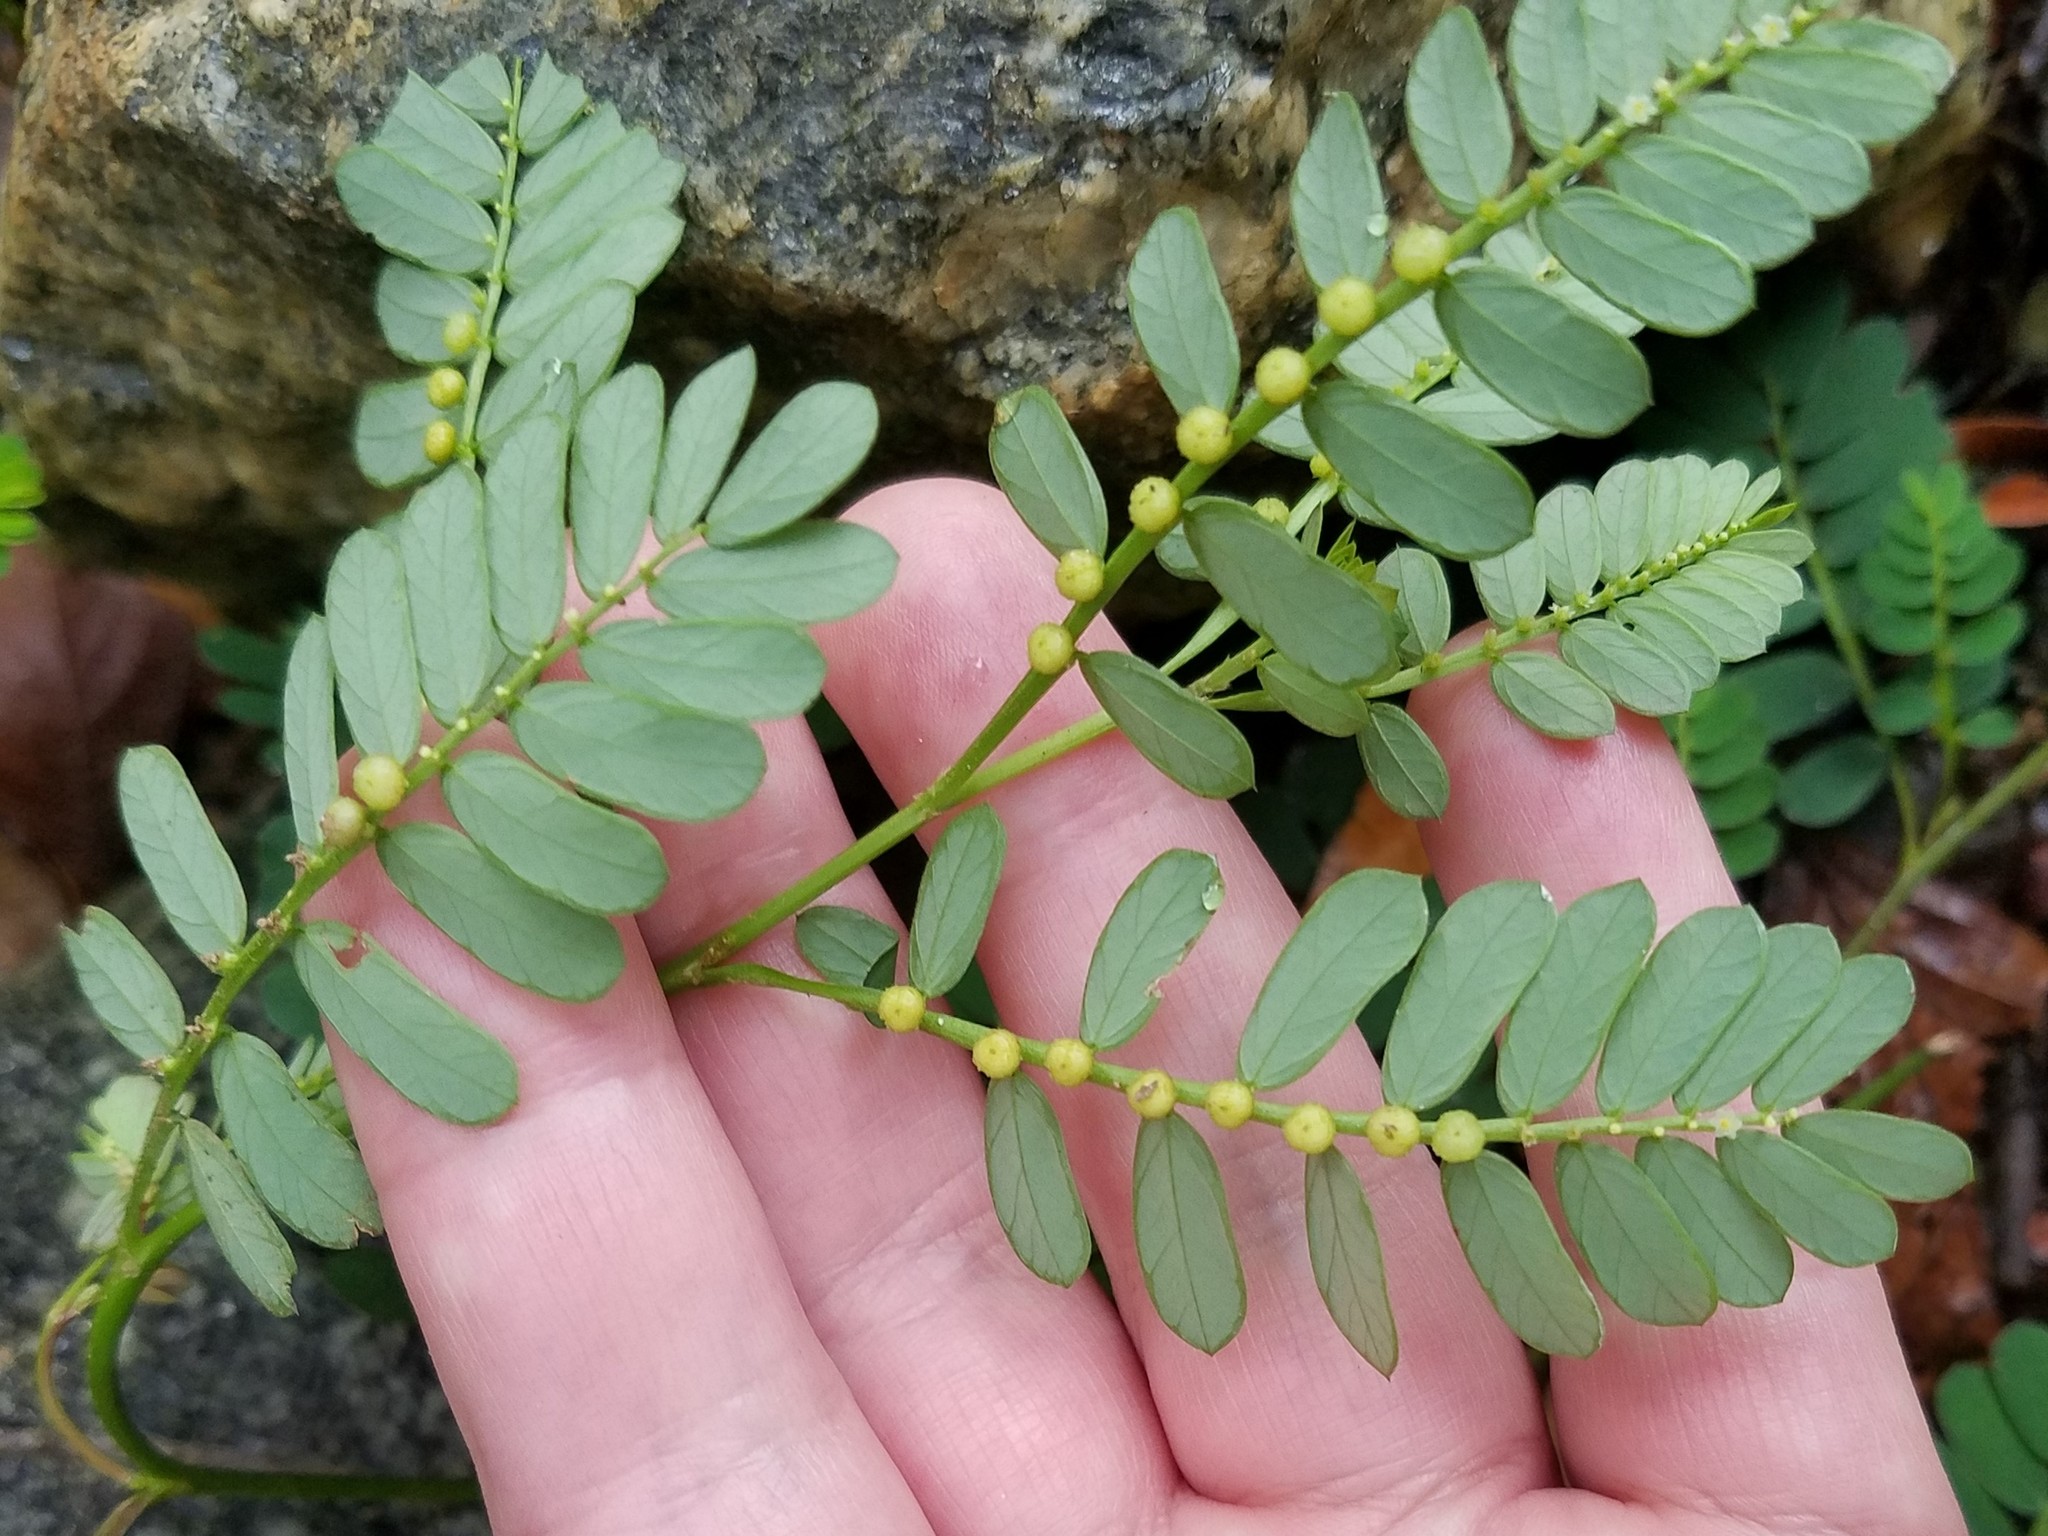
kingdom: Plantae
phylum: Tracheophyta
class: Magnoliopsida
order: Malpighiales
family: Phyllanthaceae
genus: Phyllanthus
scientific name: Phyllanthus urinaria
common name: Chamber bitter
